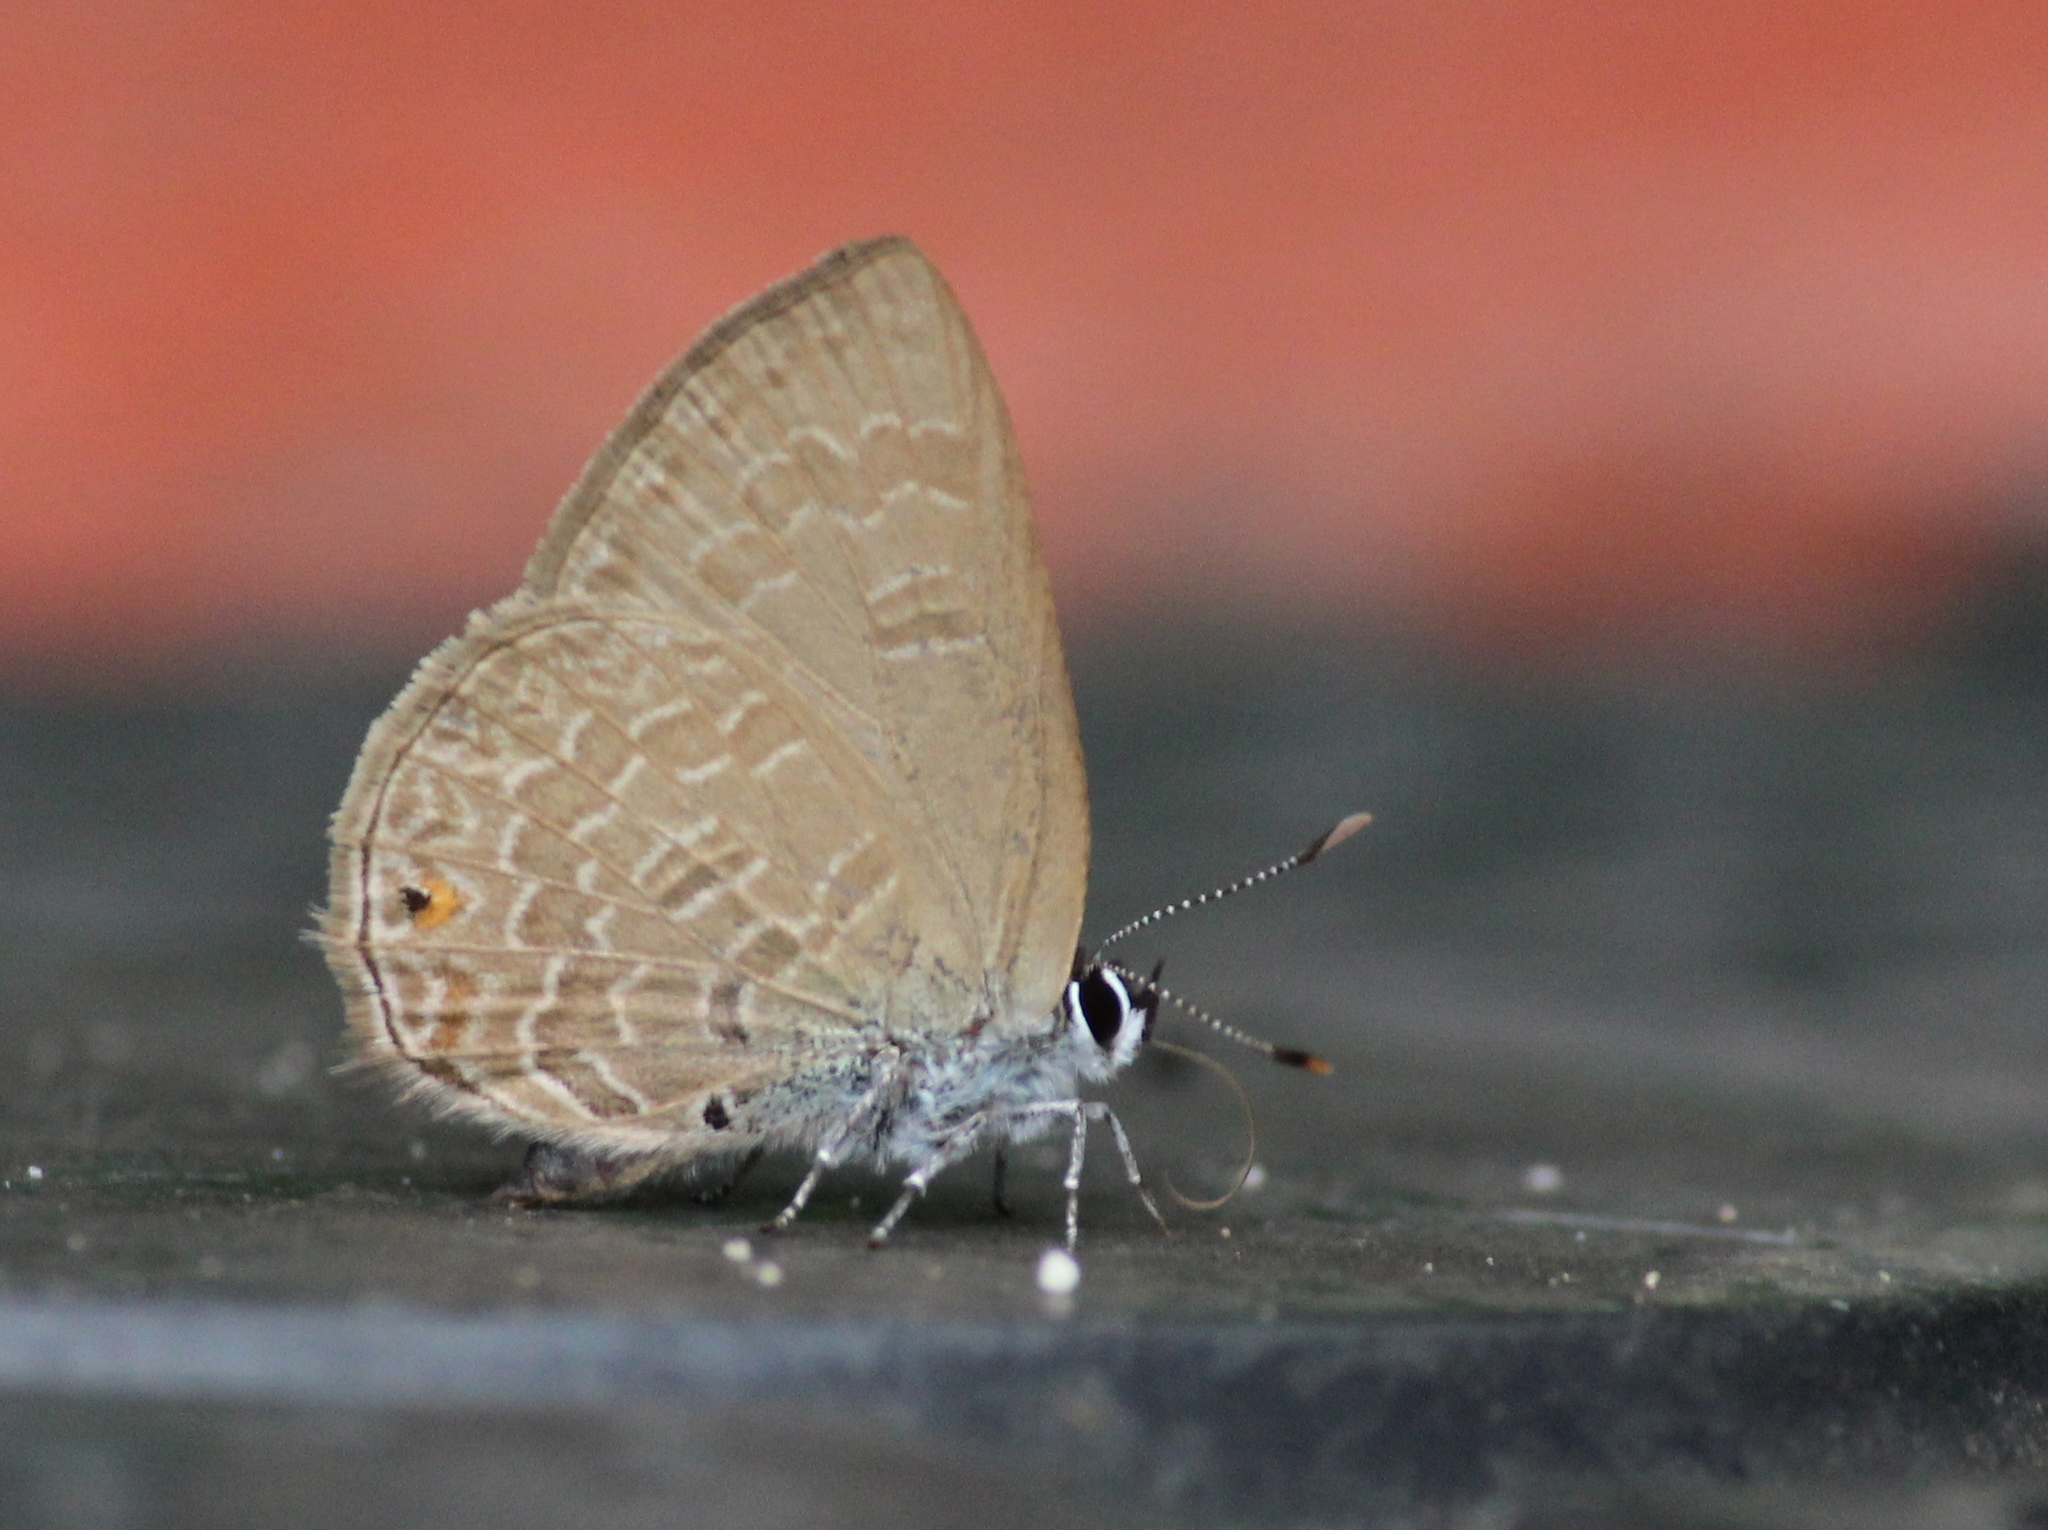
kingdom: Animalia
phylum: Arthropoda
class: Insecta
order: Lepidoptera
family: Lycaenidae
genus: Anthene
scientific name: Anthene emolus
